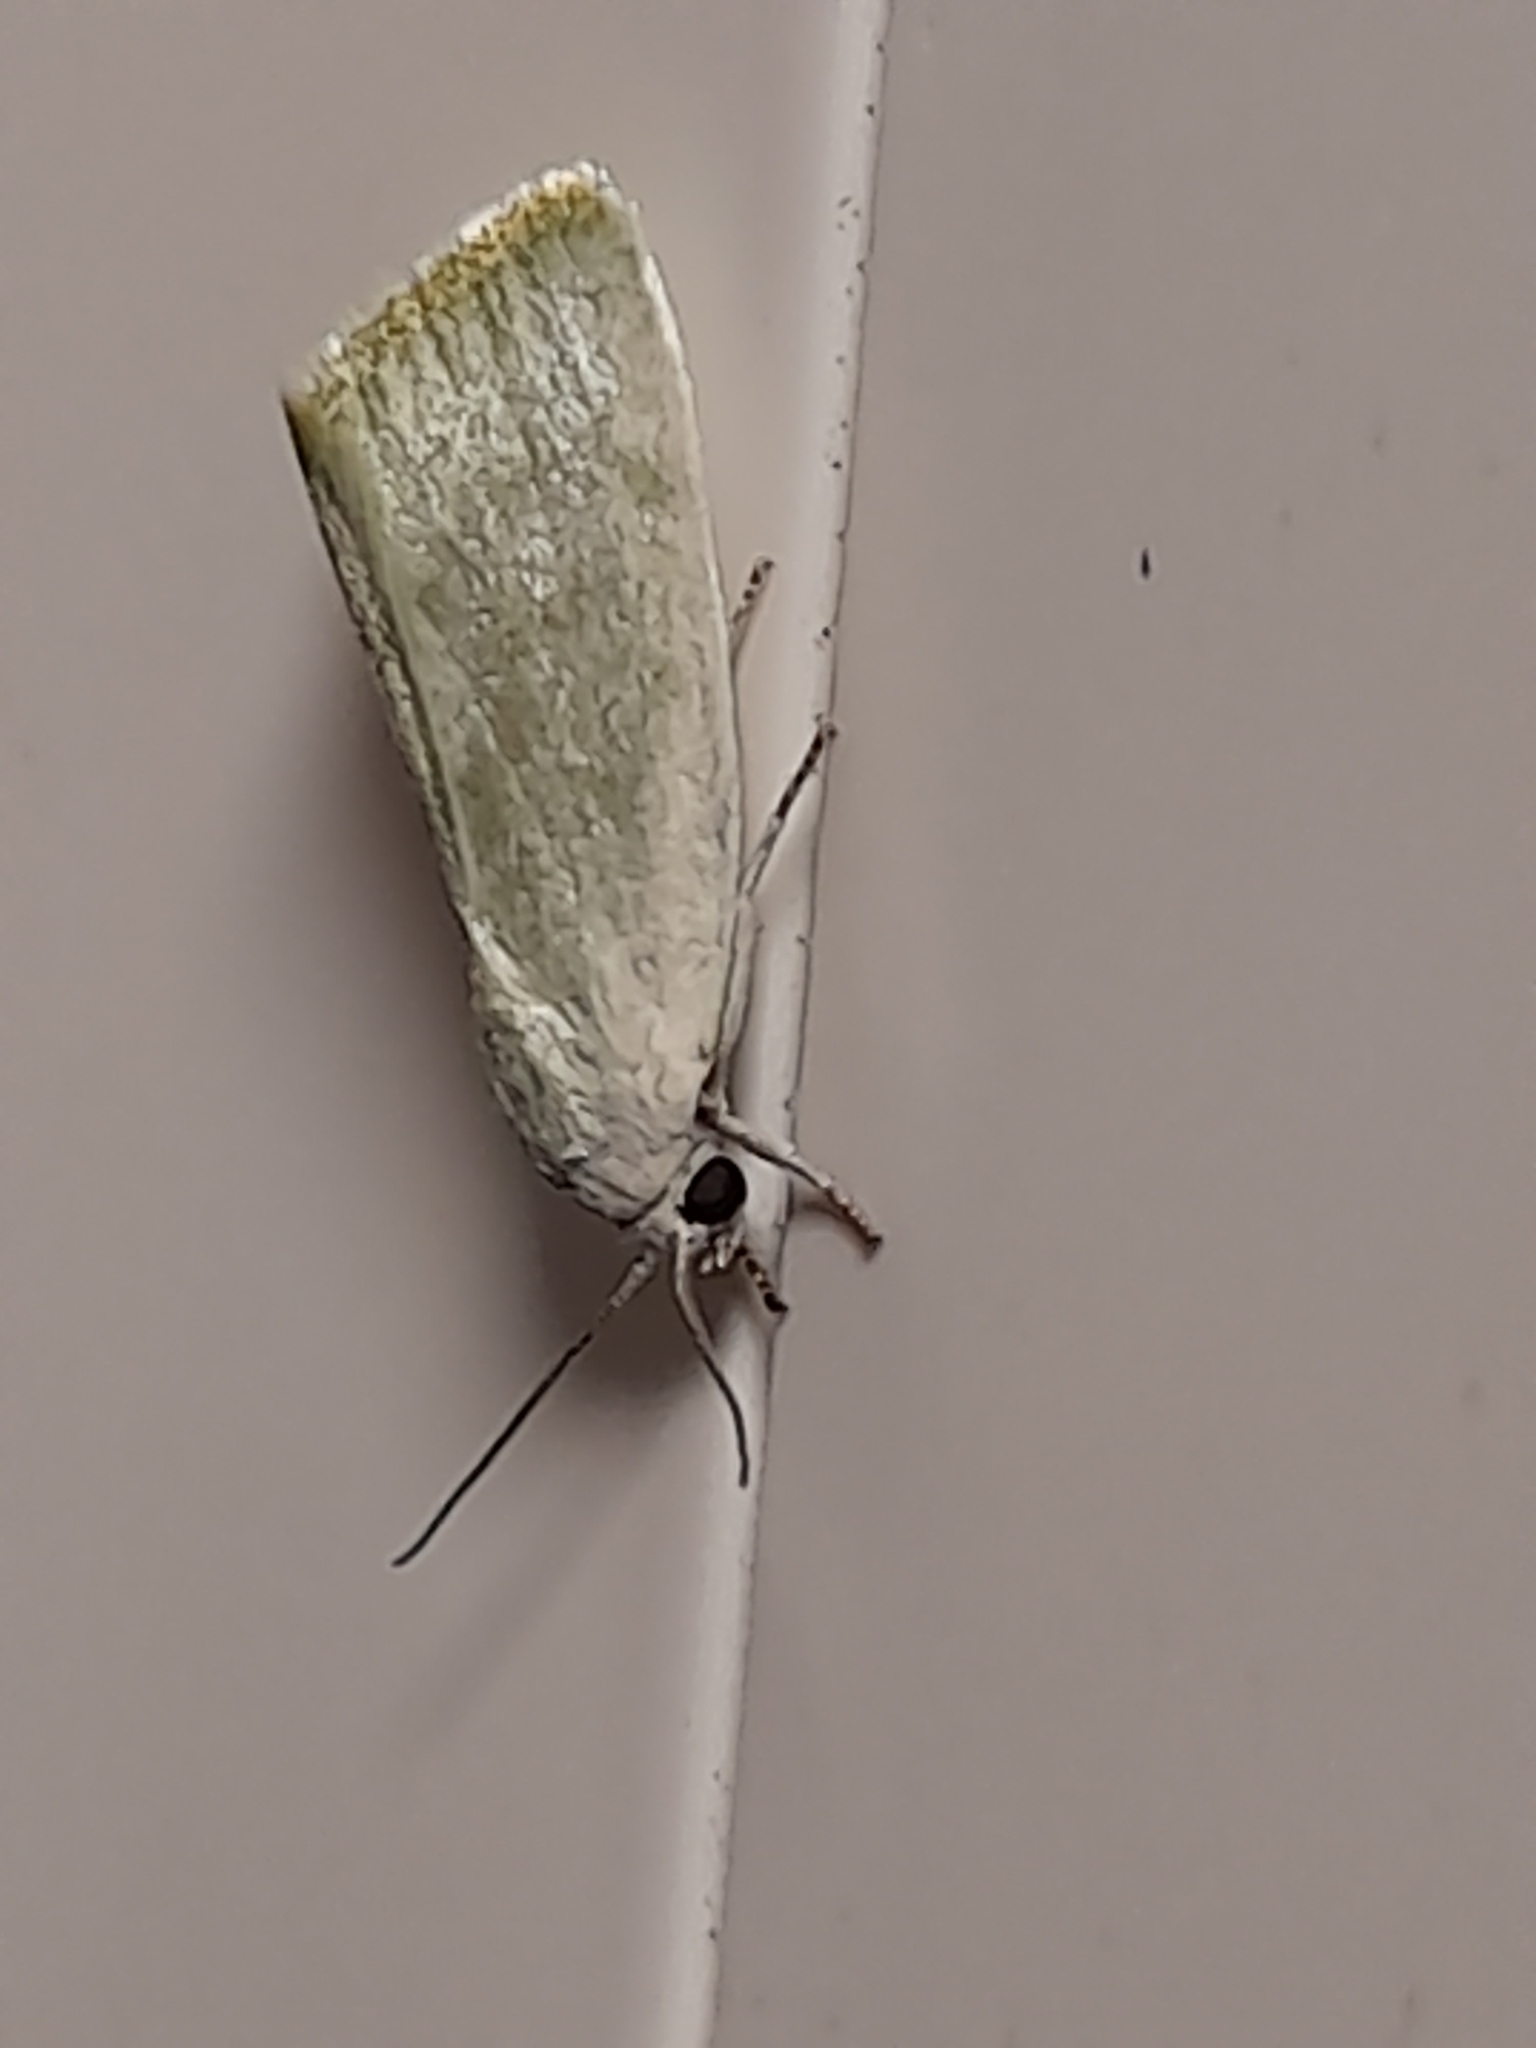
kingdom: Animalia
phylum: Arthropoda
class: Insecta
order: Lepidoptera
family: Nolidae
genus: Earias
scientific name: Earias vernana
